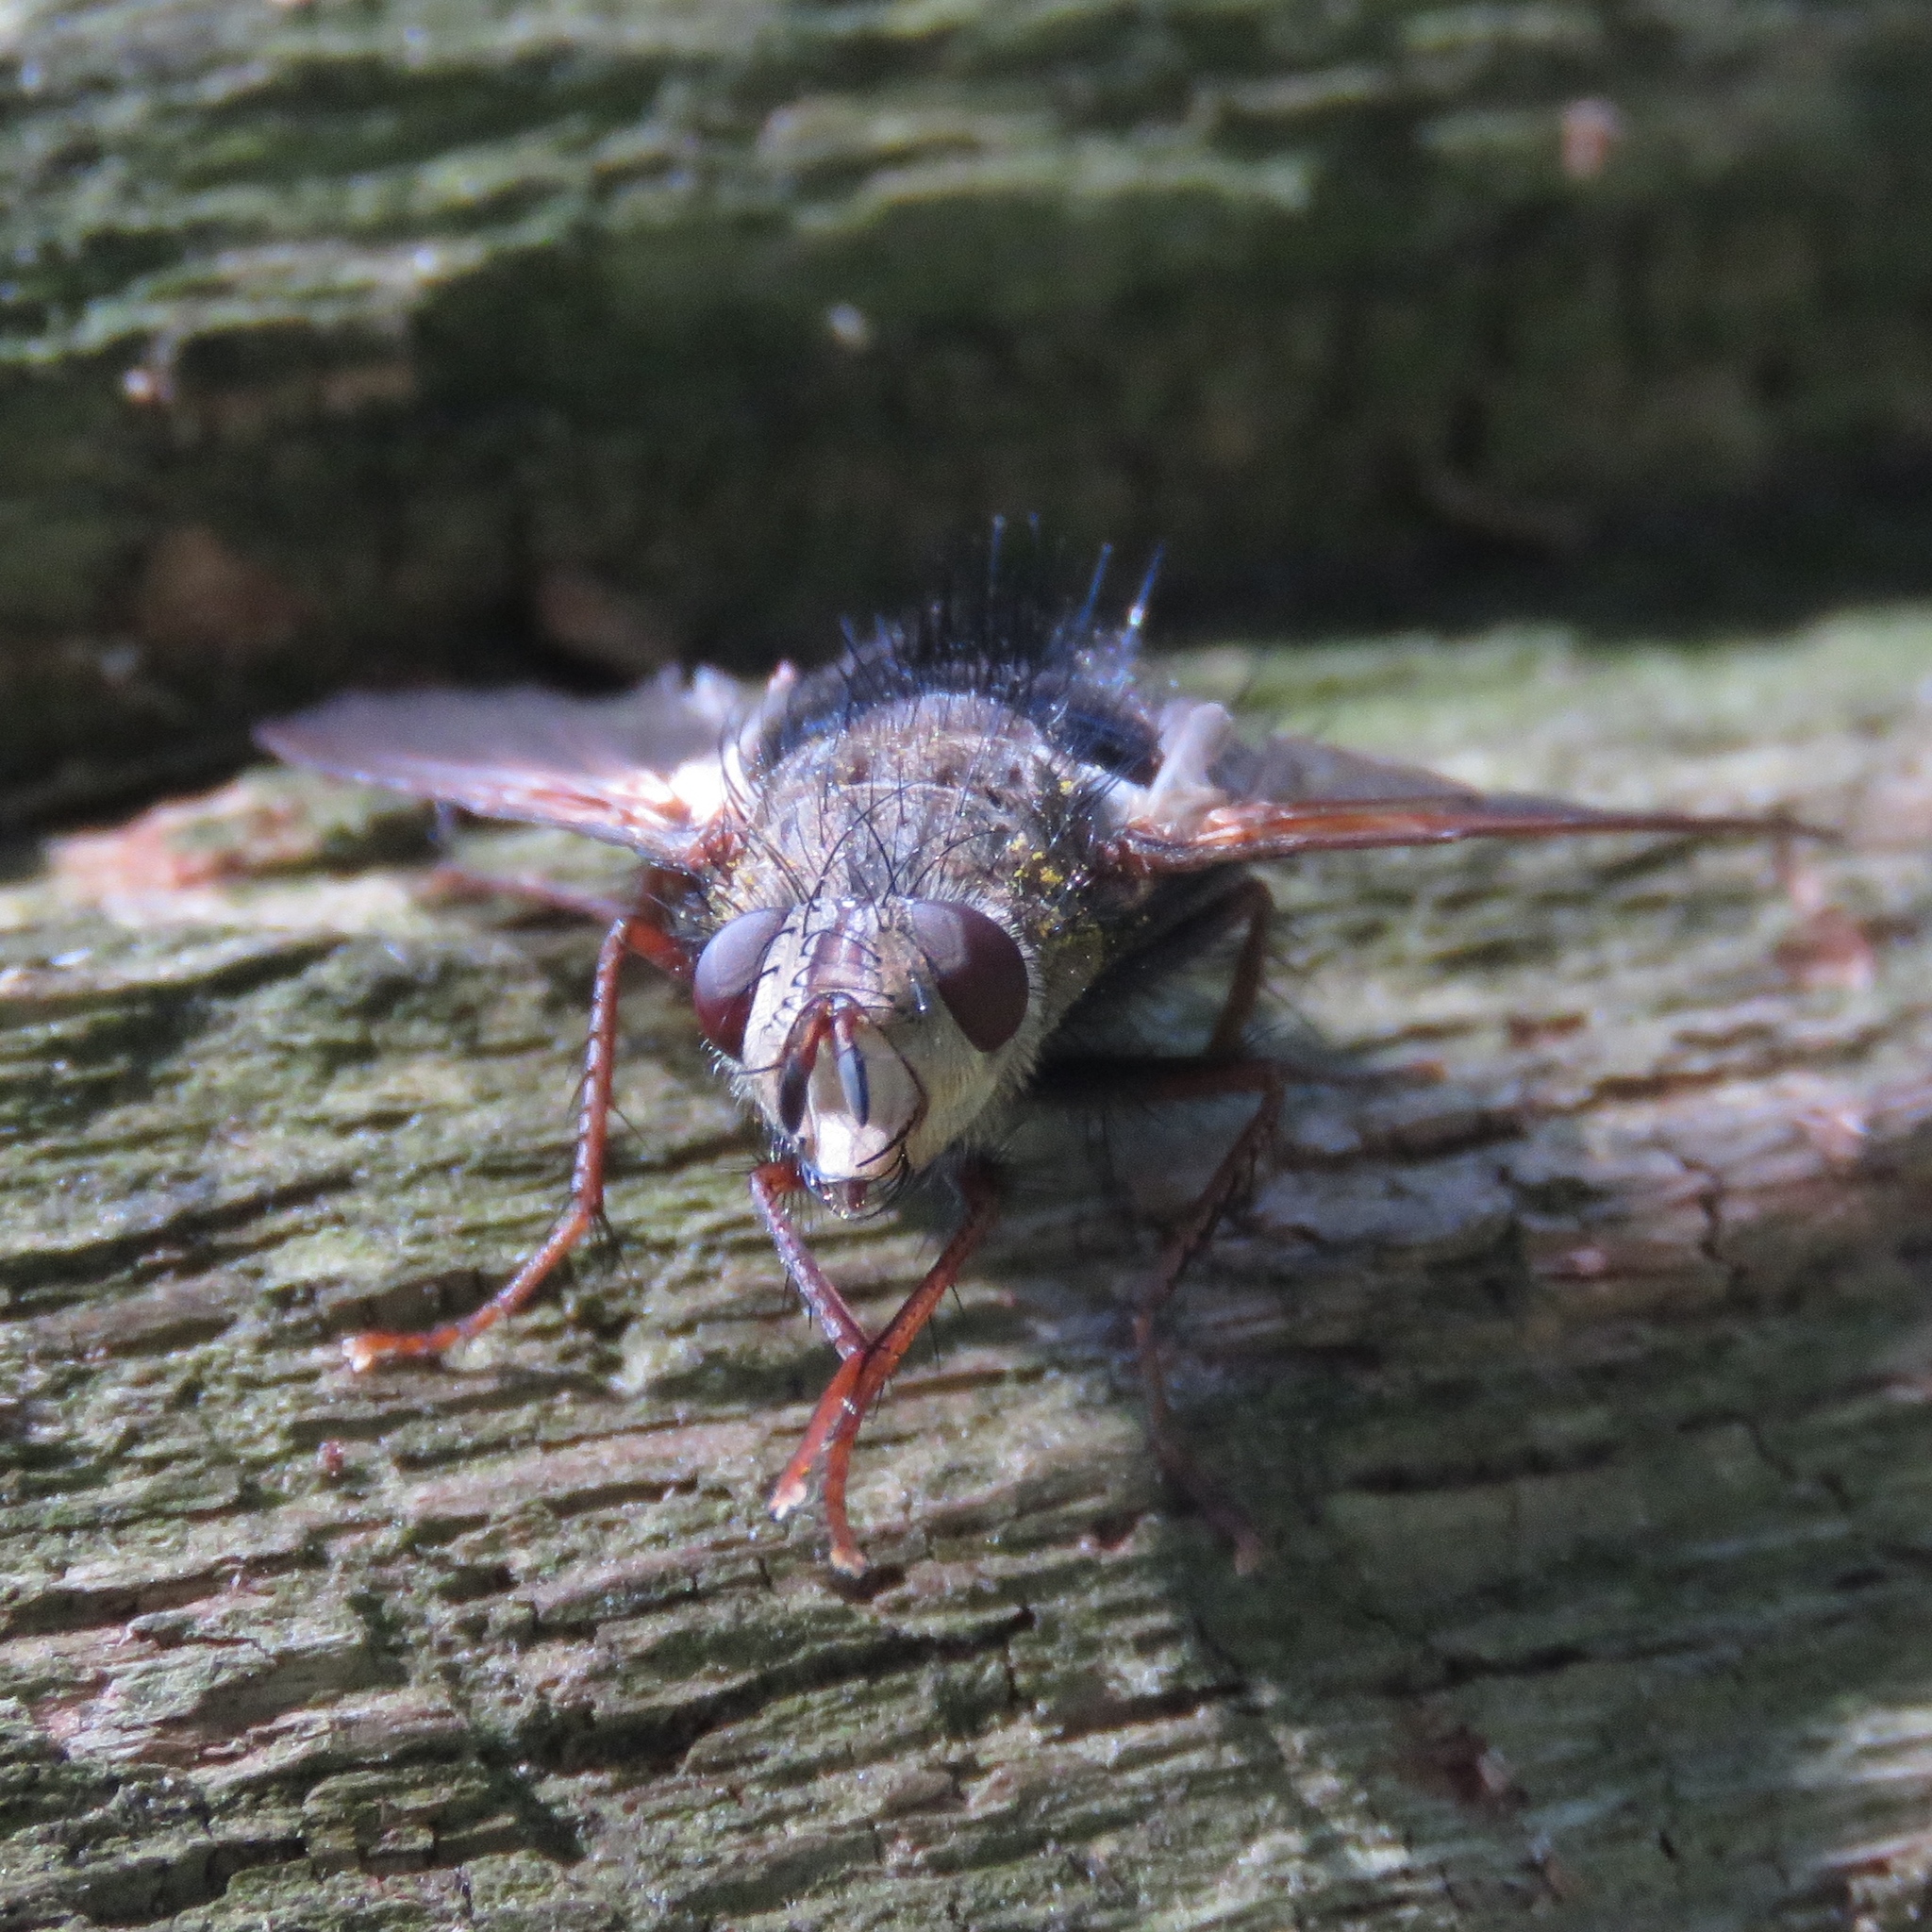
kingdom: Animalia
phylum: Arthropoda
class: Insecta
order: Diptera
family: Tachinidae
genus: Epalpus
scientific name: Epalpus signifer
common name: Early tachinid fly
